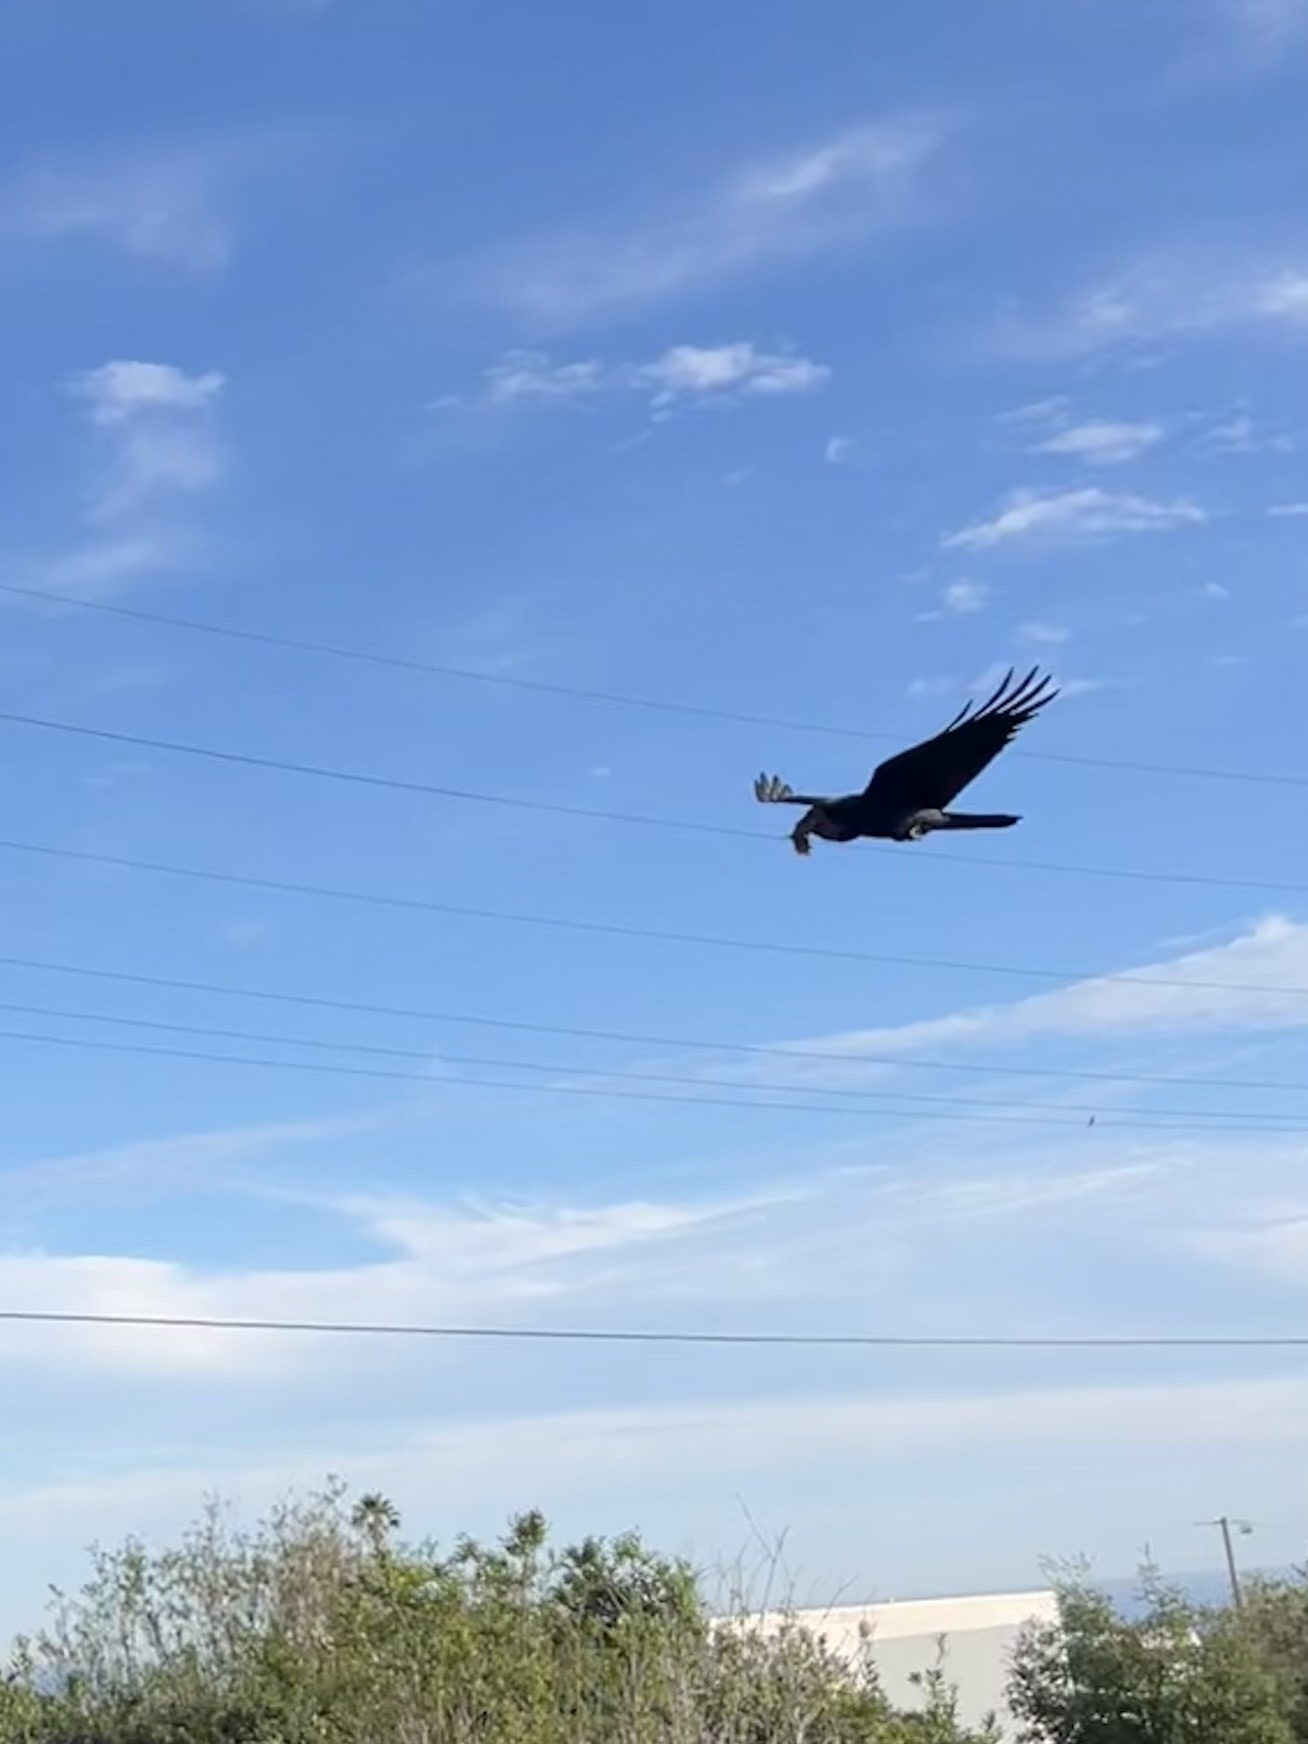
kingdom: Animalia
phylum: Chordata
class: Aves
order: Passeriformes
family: Corvidae
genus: Corvus
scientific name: Corvus brachyrhynchos
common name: American crow
